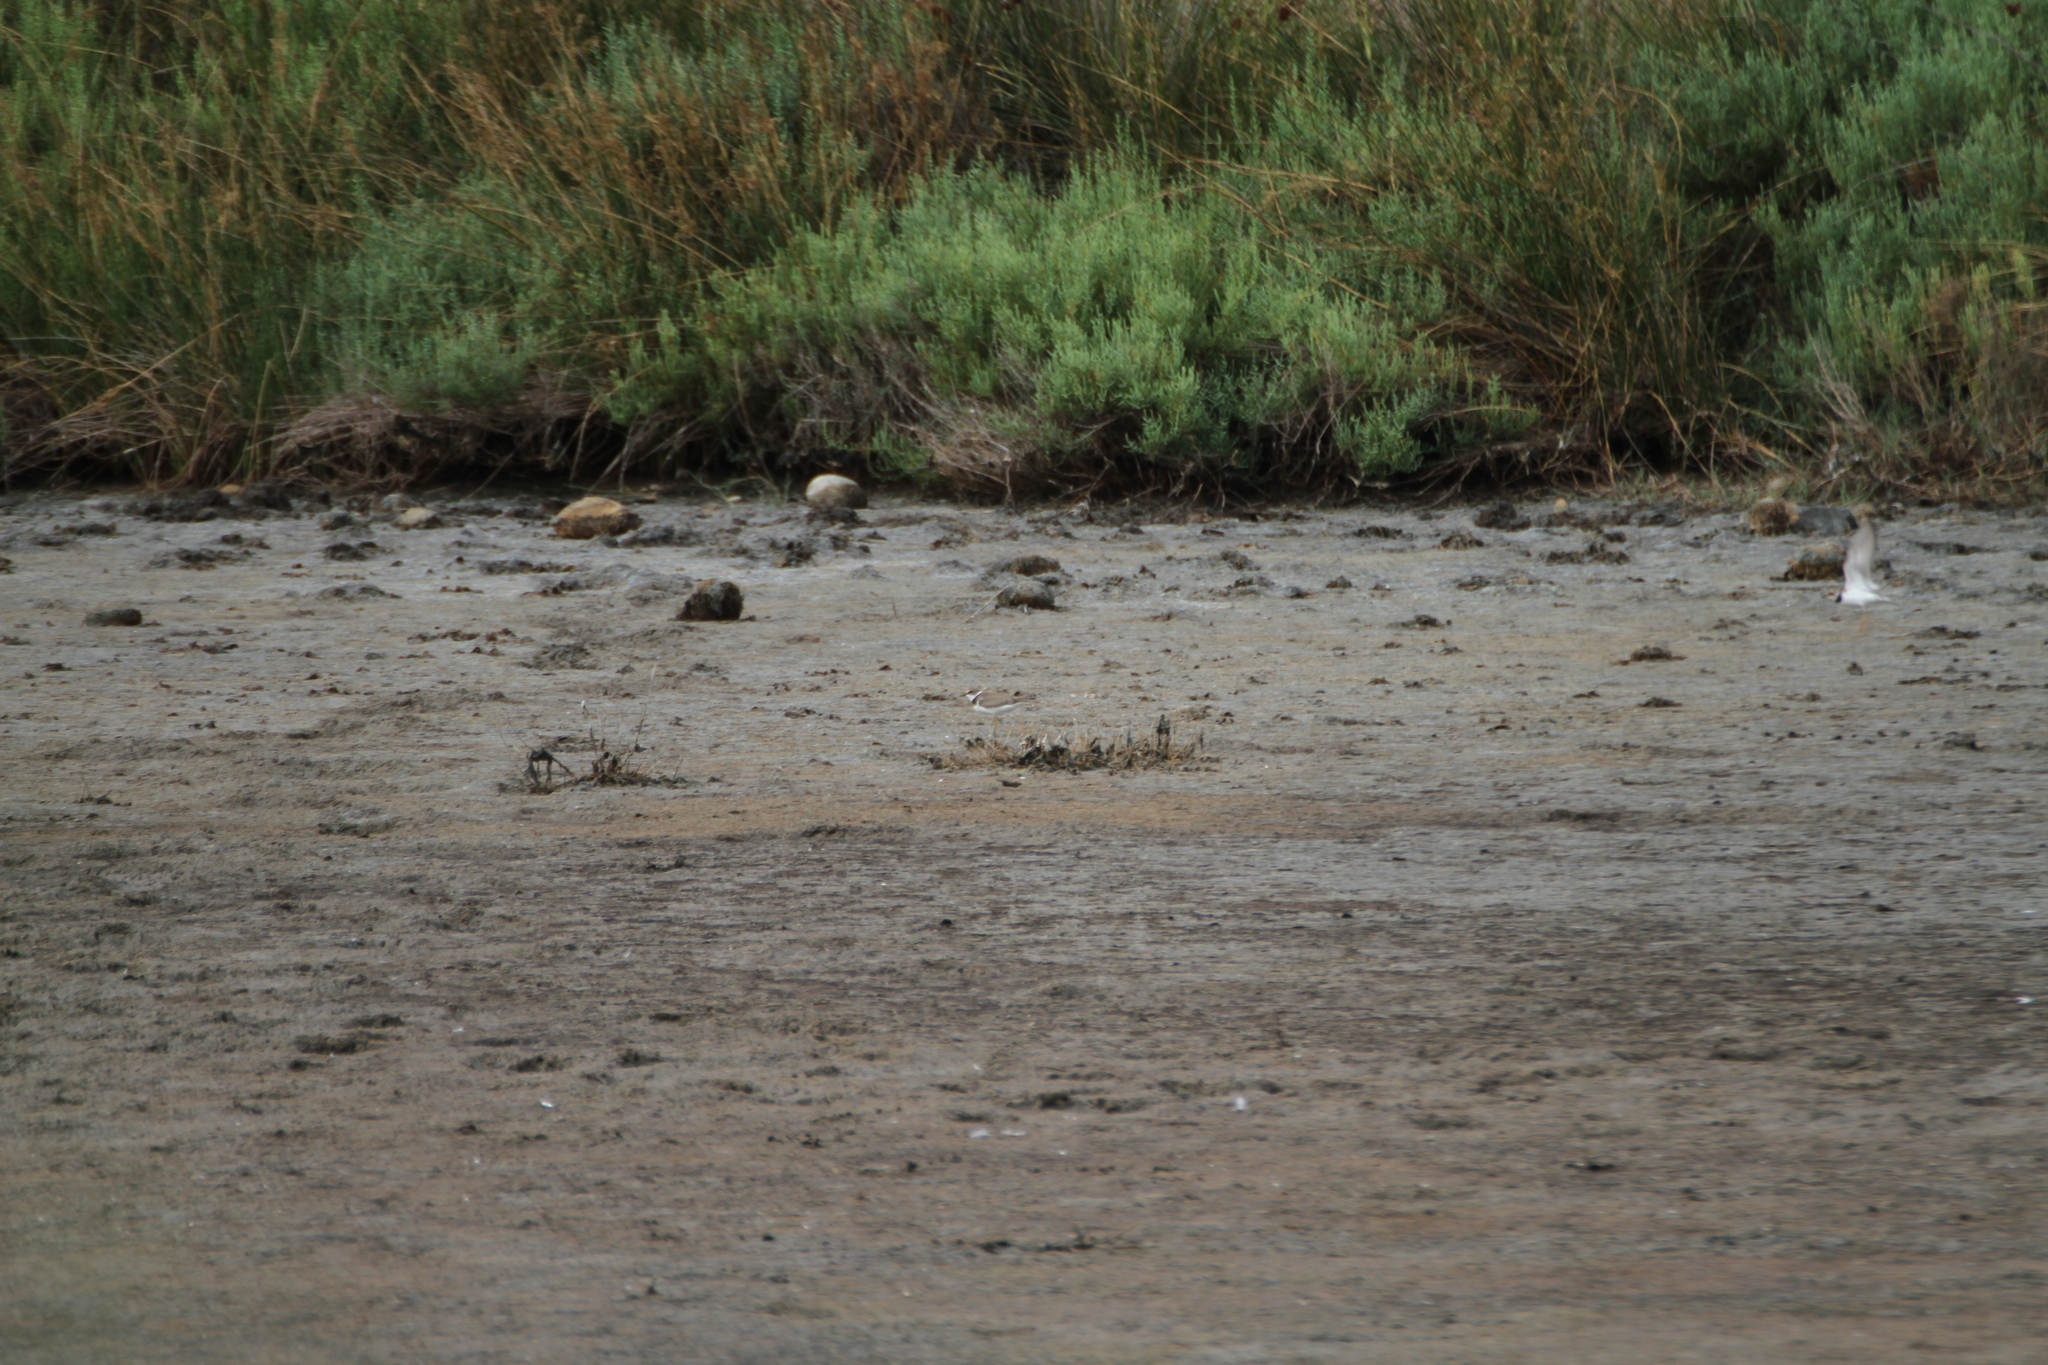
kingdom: Animalia
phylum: Chordata
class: Aves
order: Charadriiformes
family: Charadriidae
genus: Charadrius
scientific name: Charadrius dubius
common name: Little ringed plover
